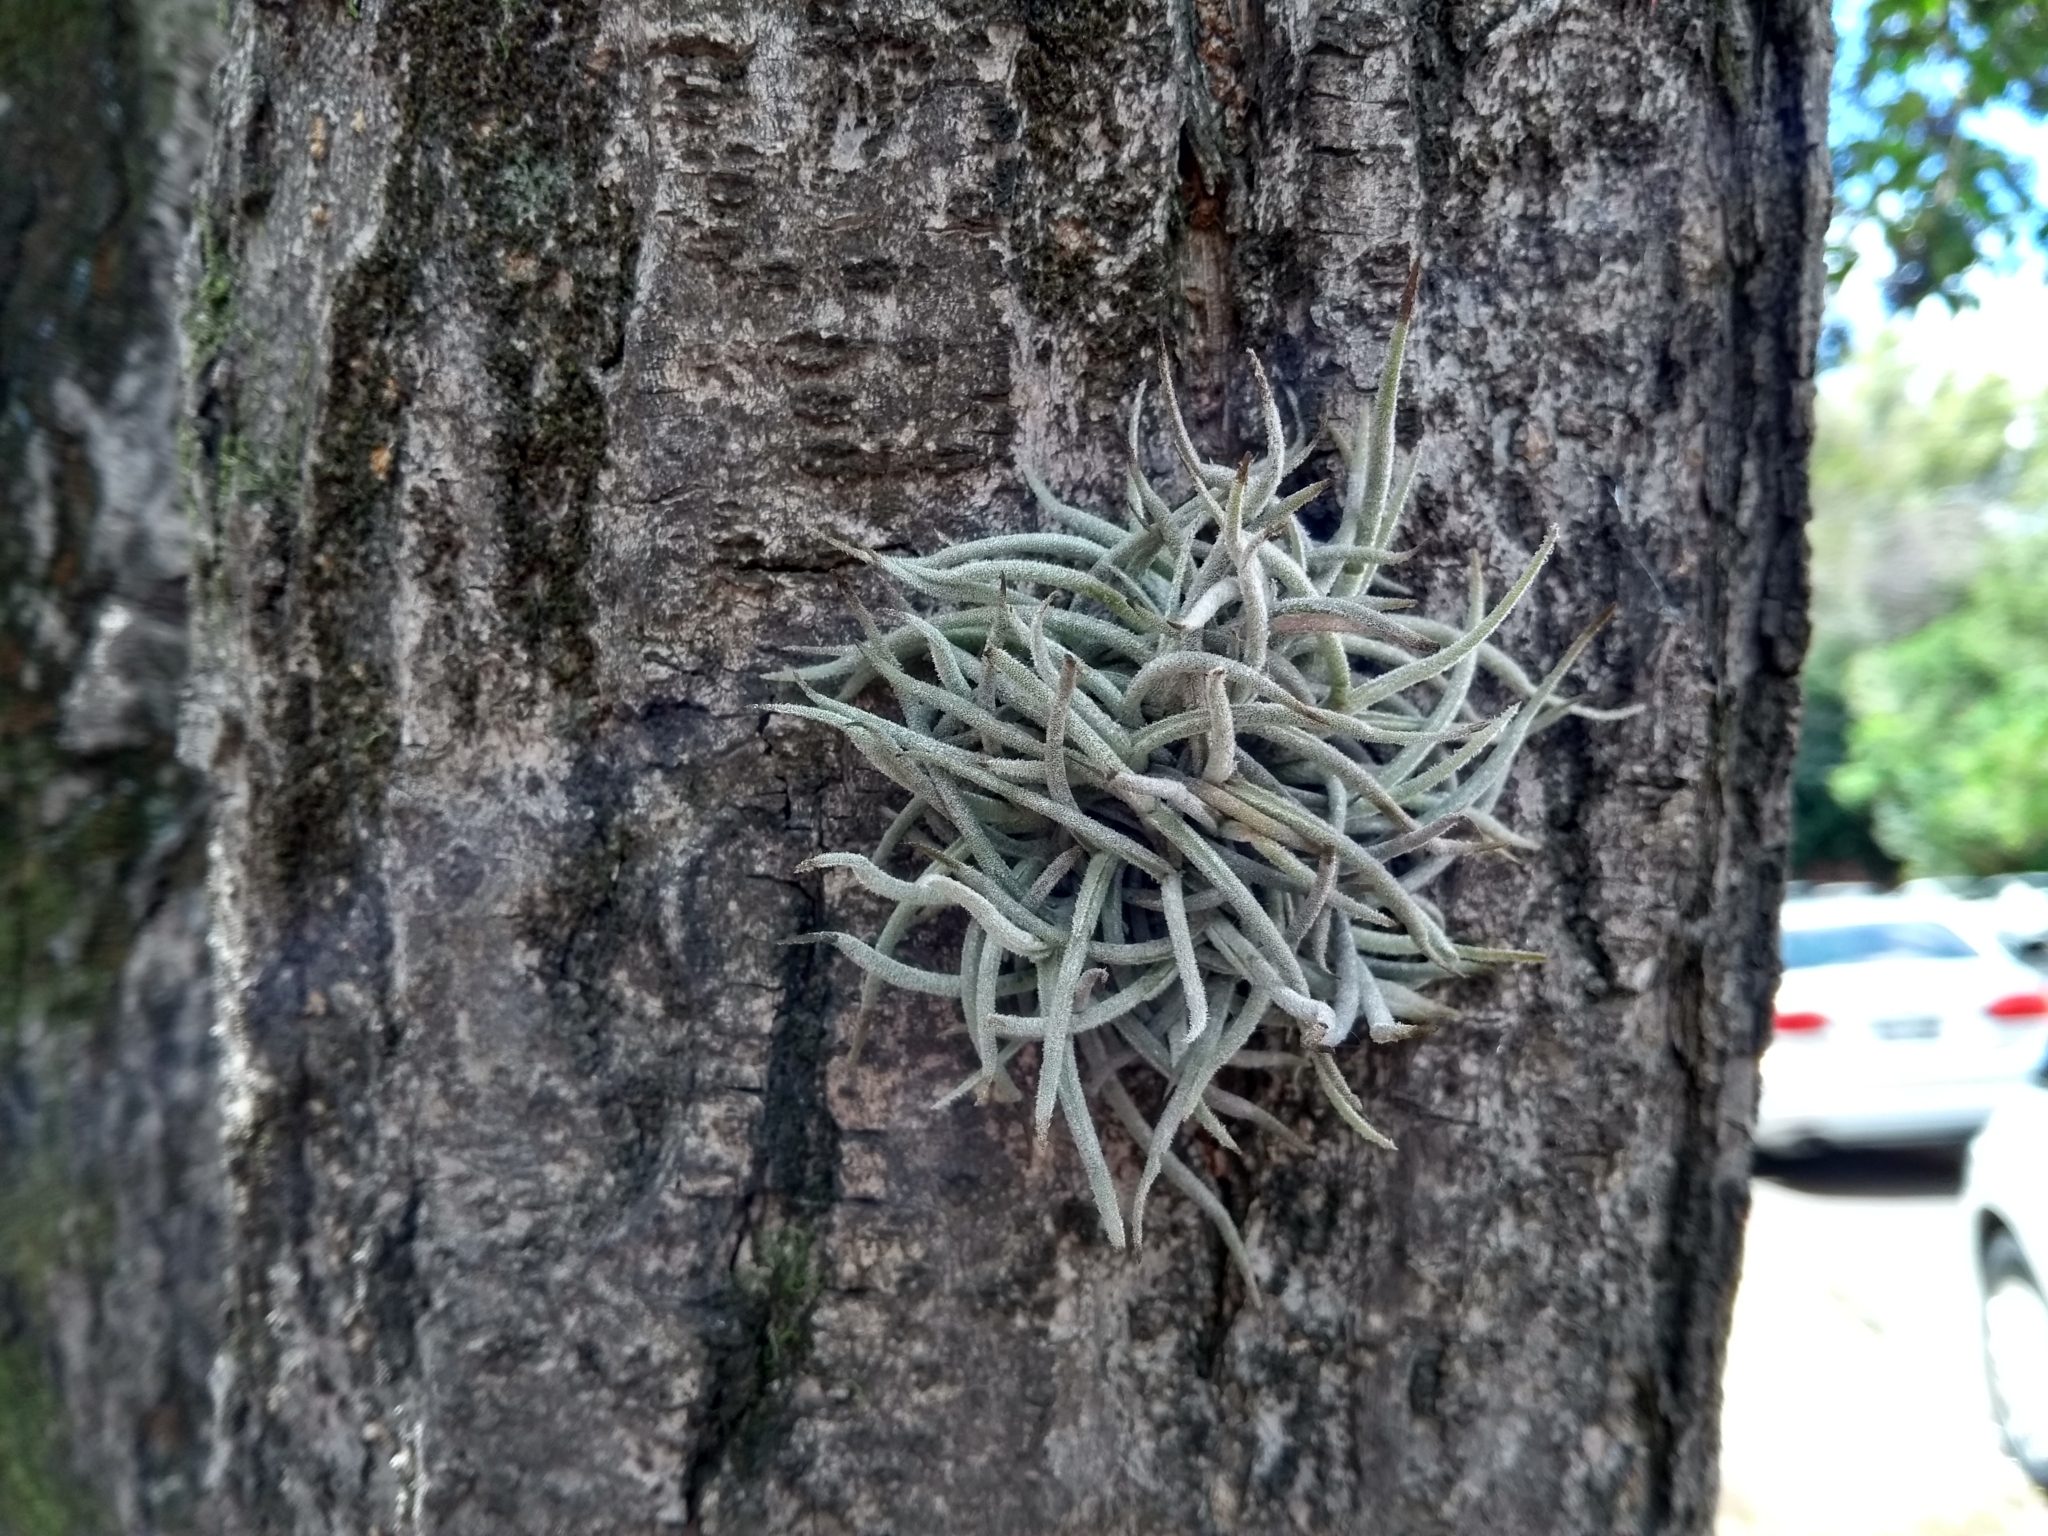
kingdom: Plantae
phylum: Tracheophyta
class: Liliopsida
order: Poales
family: Bromeliaceae
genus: Tillandsia
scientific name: Tillandsia recurvata
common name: Small ballmoss
